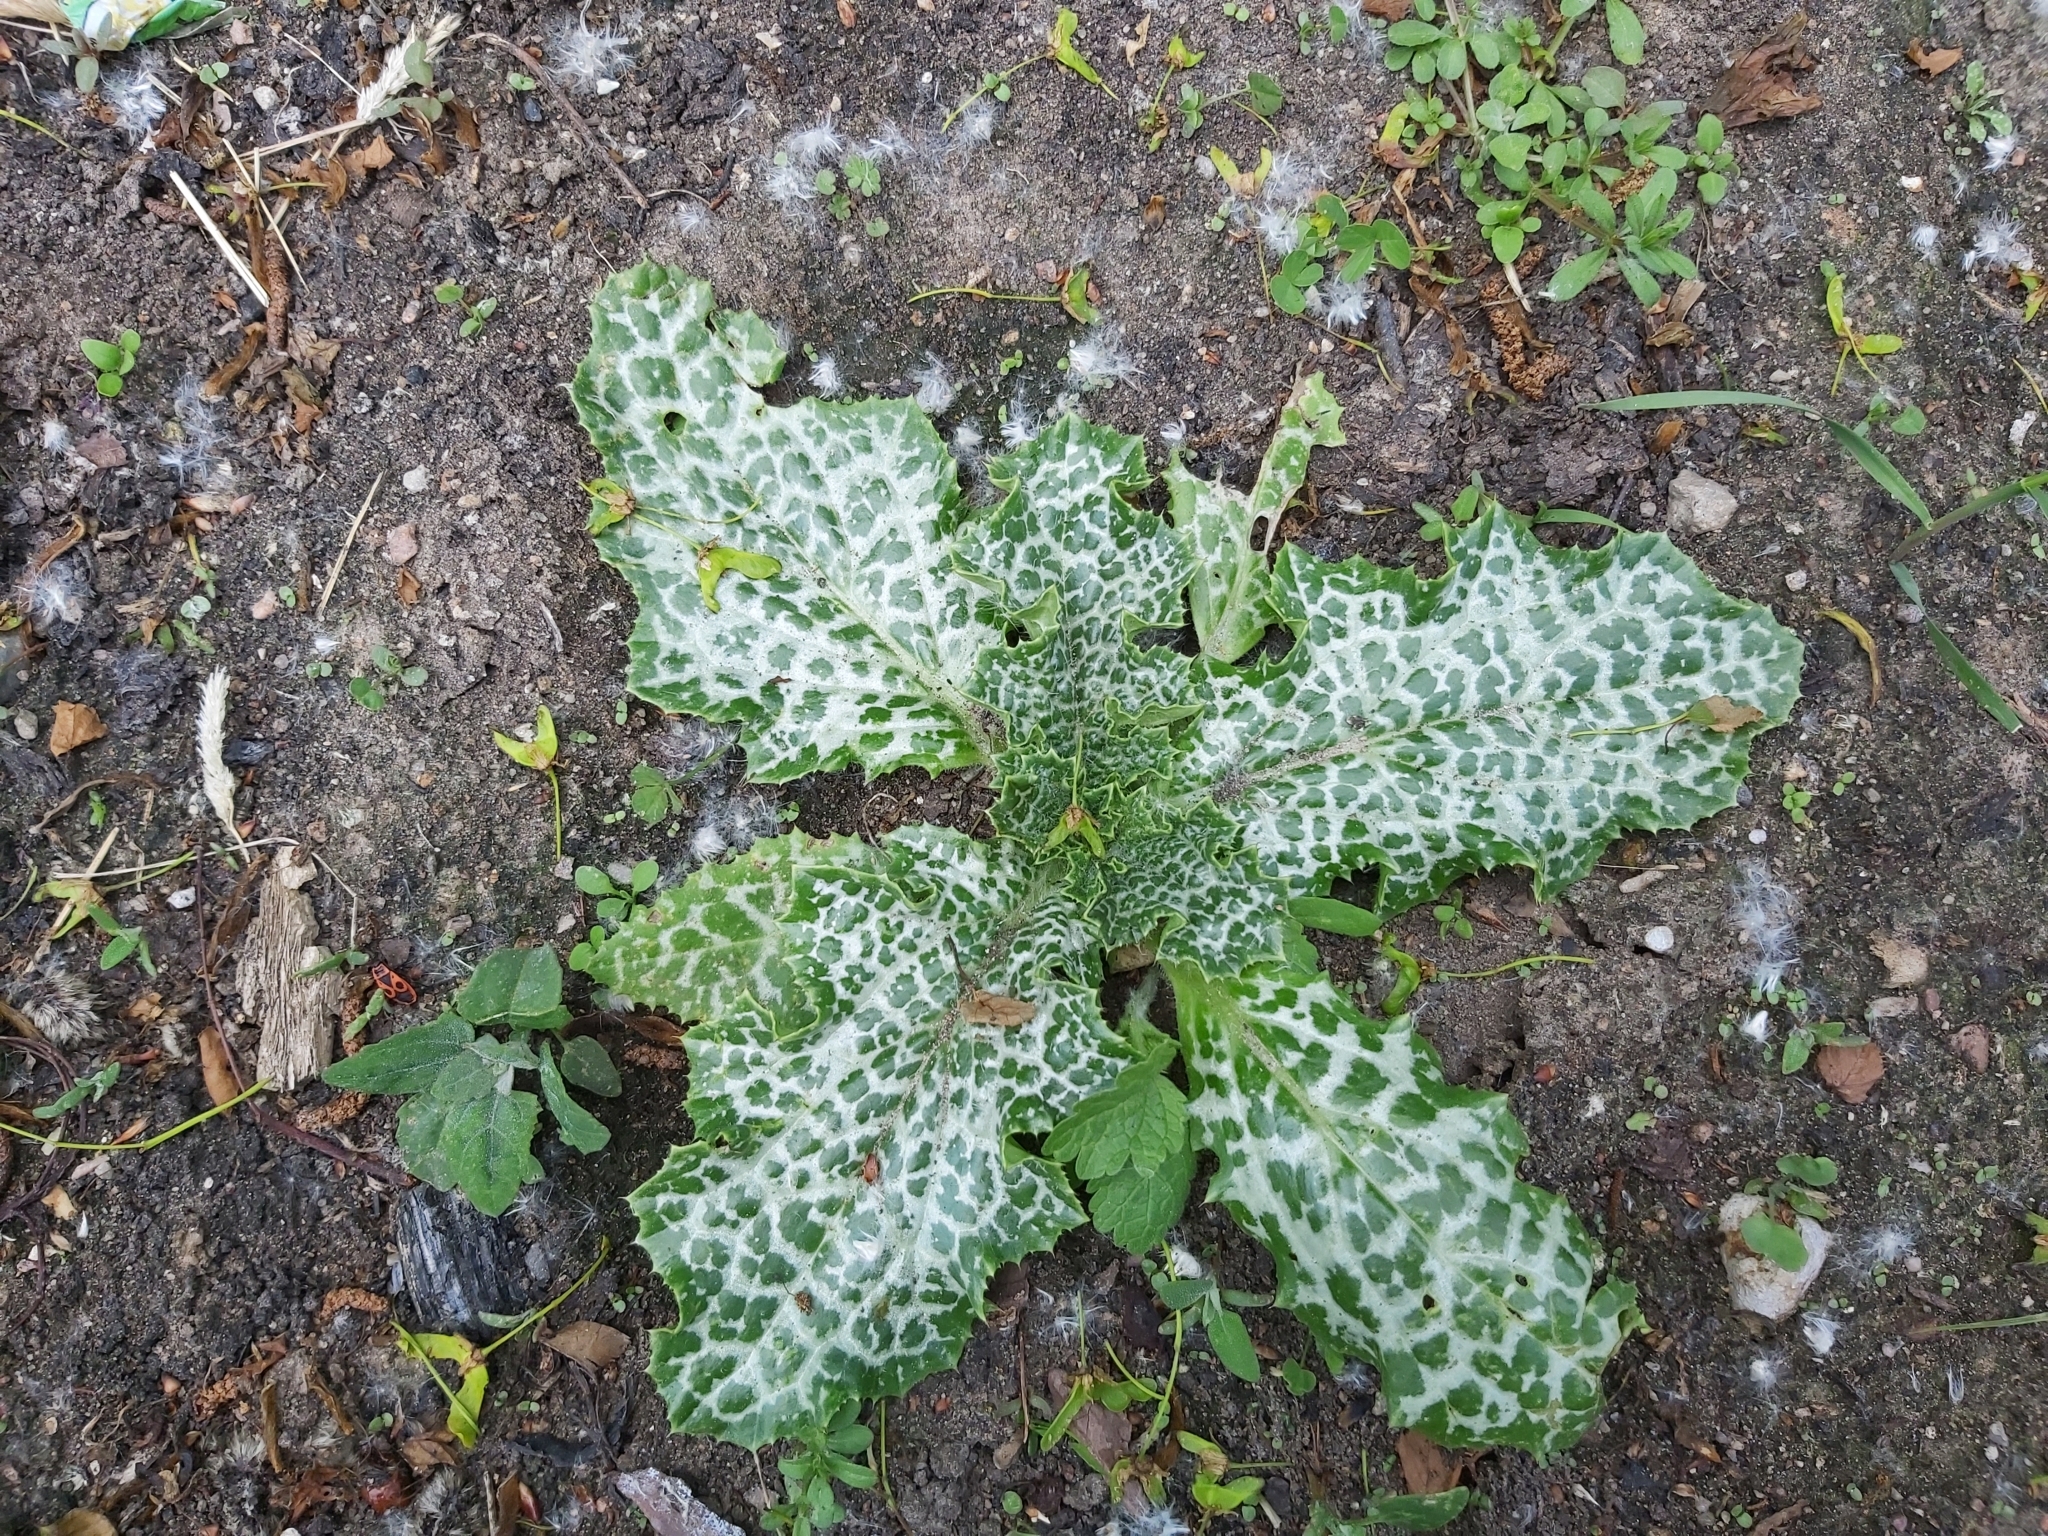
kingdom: Plantae
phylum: Tracheophyta
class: Magnoliopsida
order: Asterales
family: Asteraceae
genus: Silybum
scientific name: Silybum marianum
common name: Milk thistle
